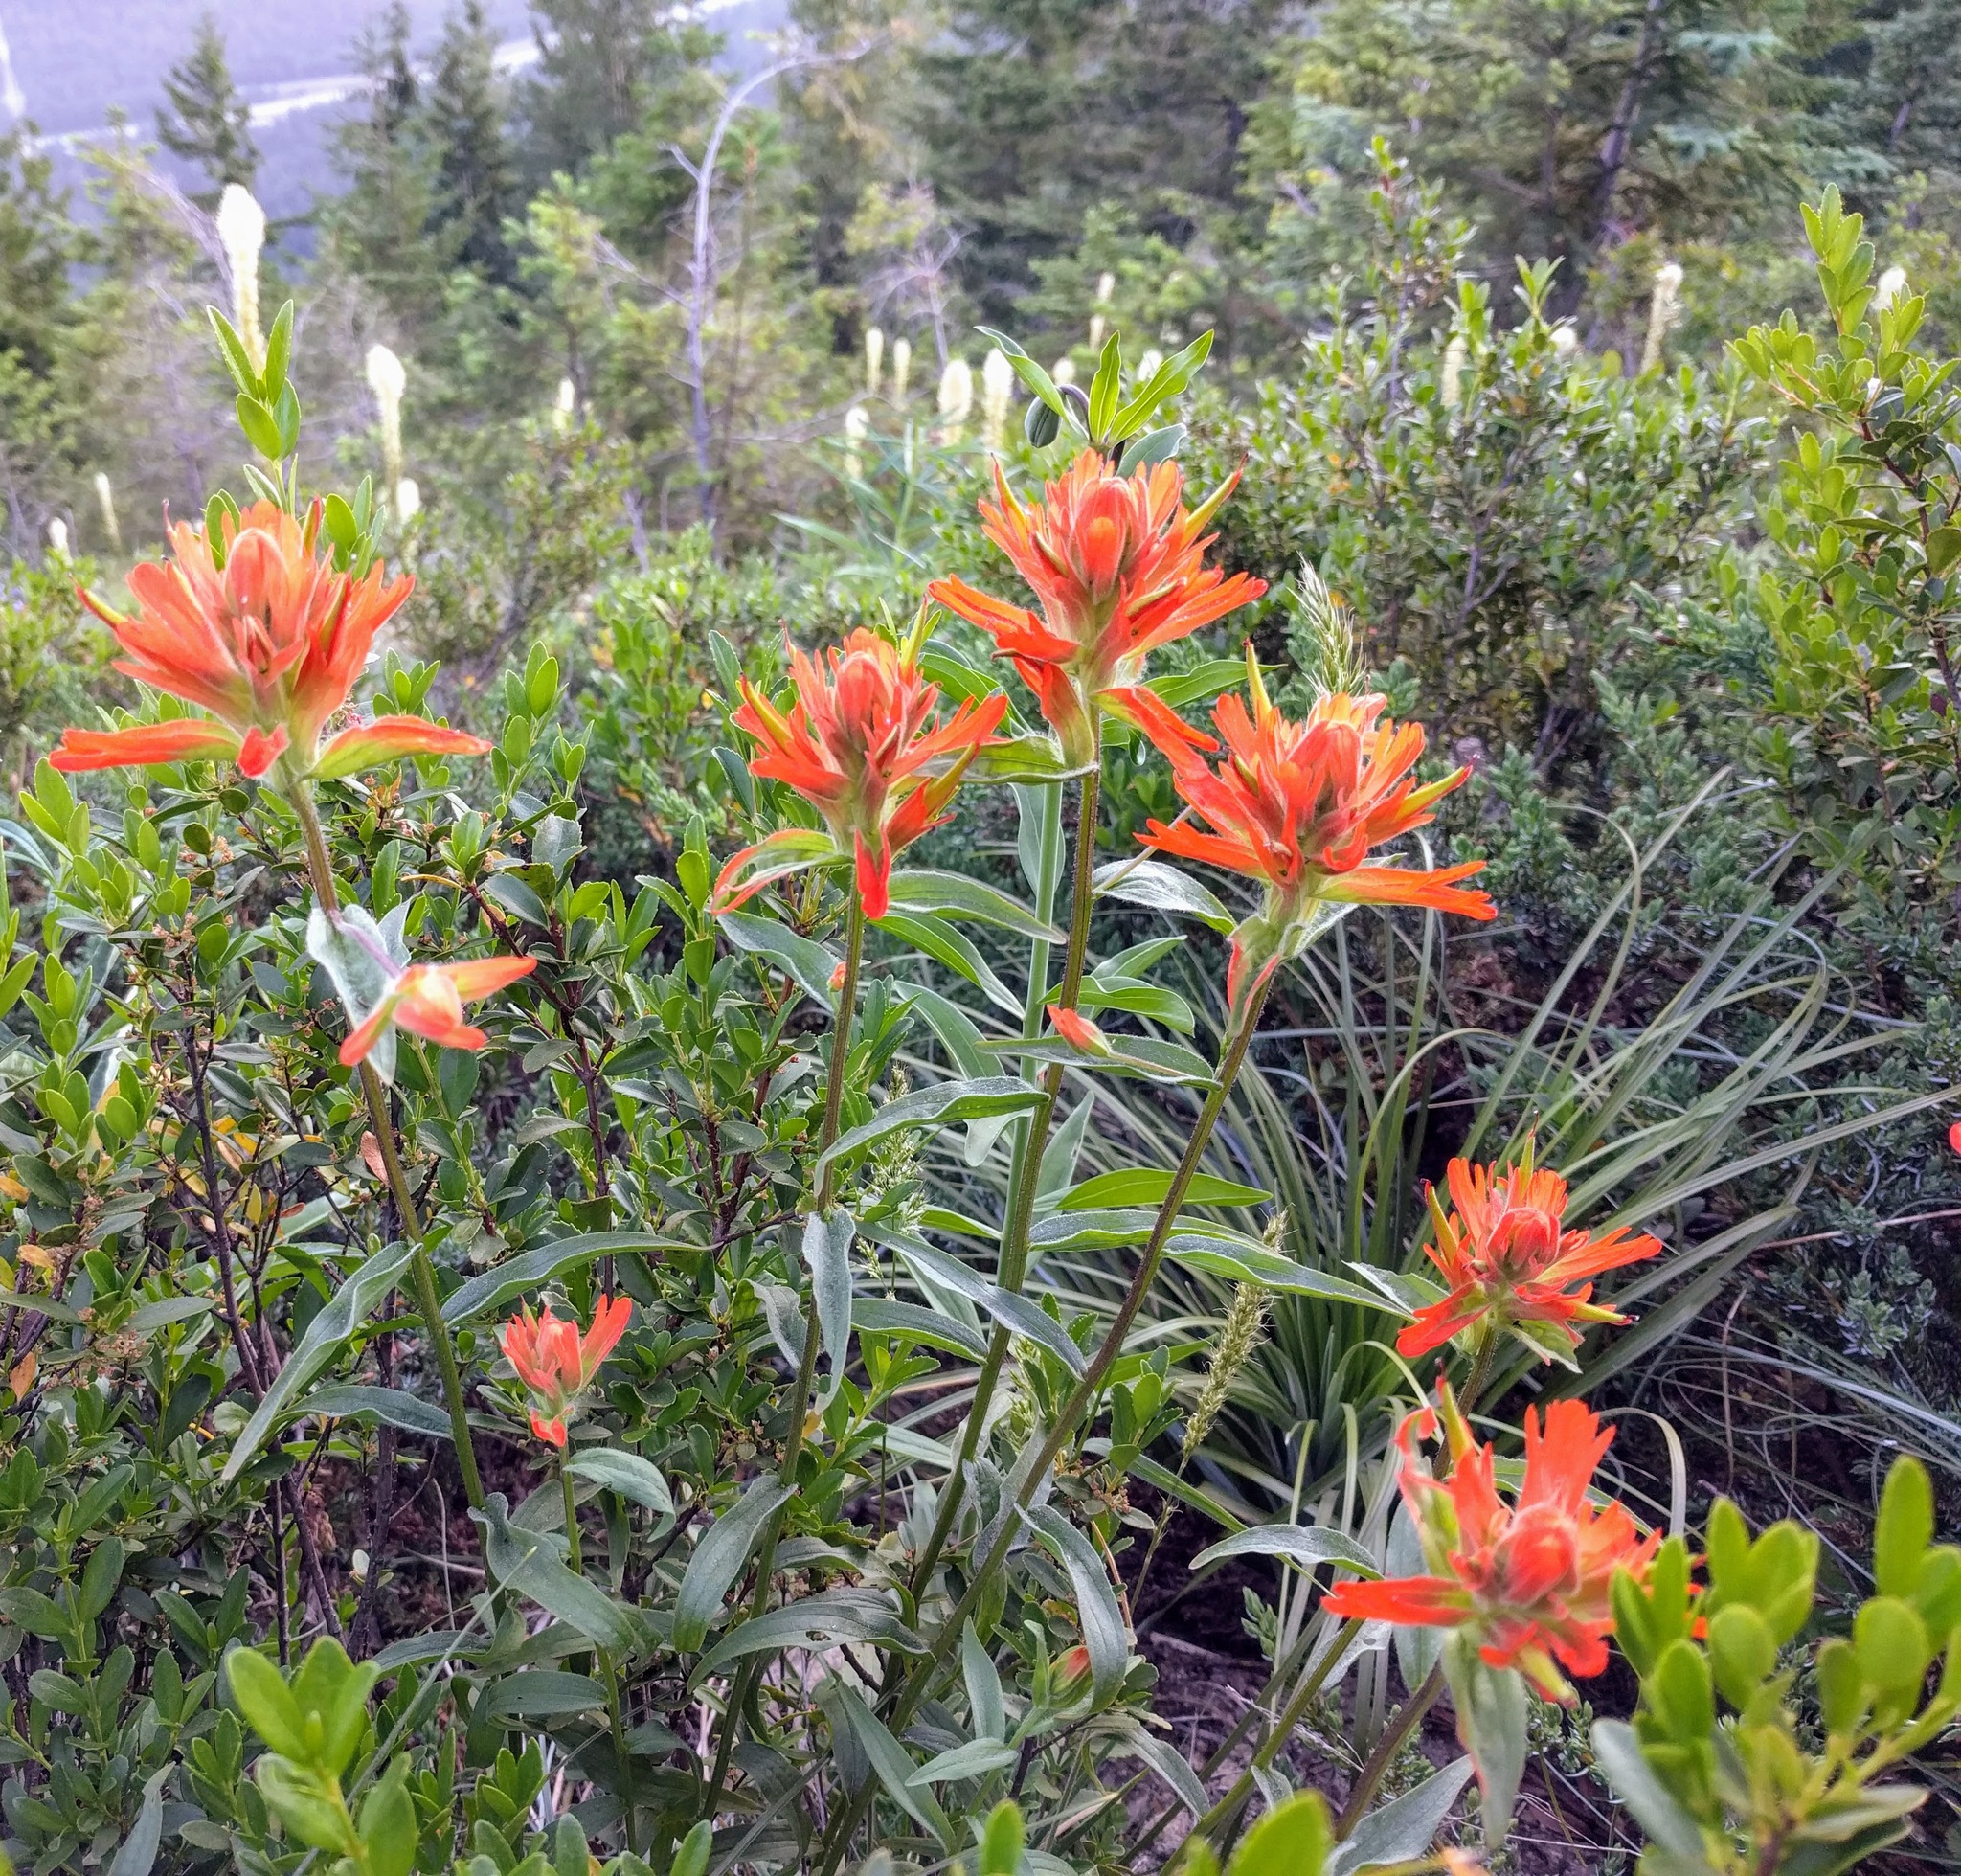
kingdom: Plantae
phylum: Tracheophyta
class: Magnoliopsida
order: Lamiales
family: Orobanchaceae
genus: Castilleja
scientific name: Castilleja miniata
